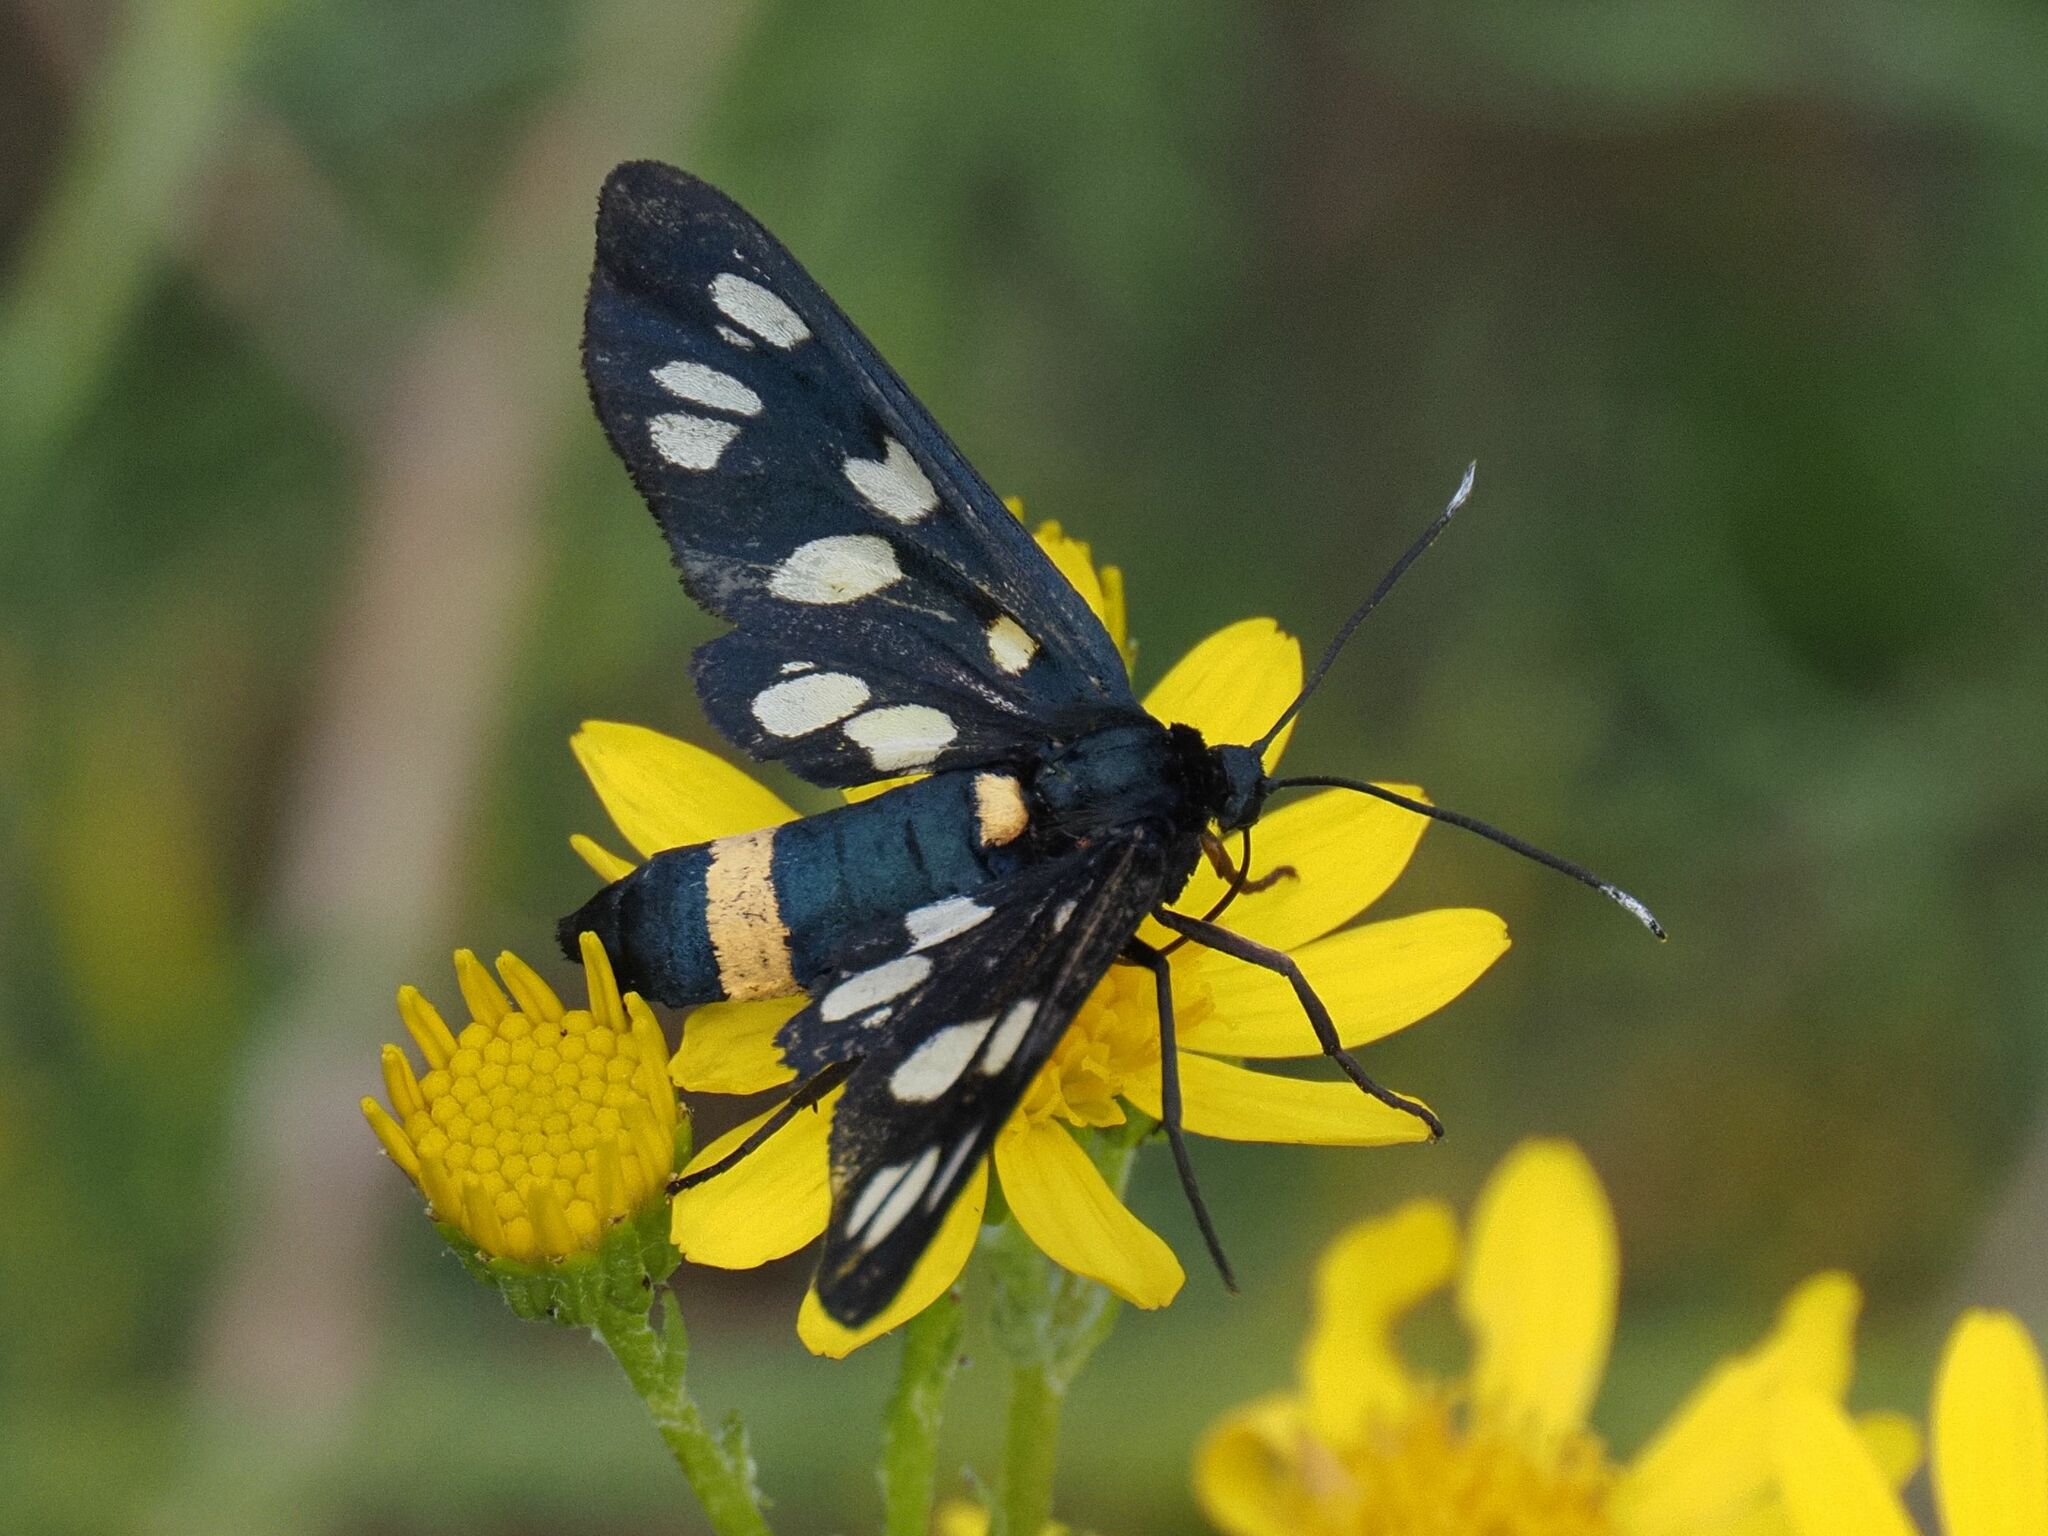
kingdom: Animalia
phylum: Arthropoda
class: Insecta
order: Lepidoptera
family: Erebidae
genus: Amata
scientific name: Amata phegea
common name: Nine-spotted
